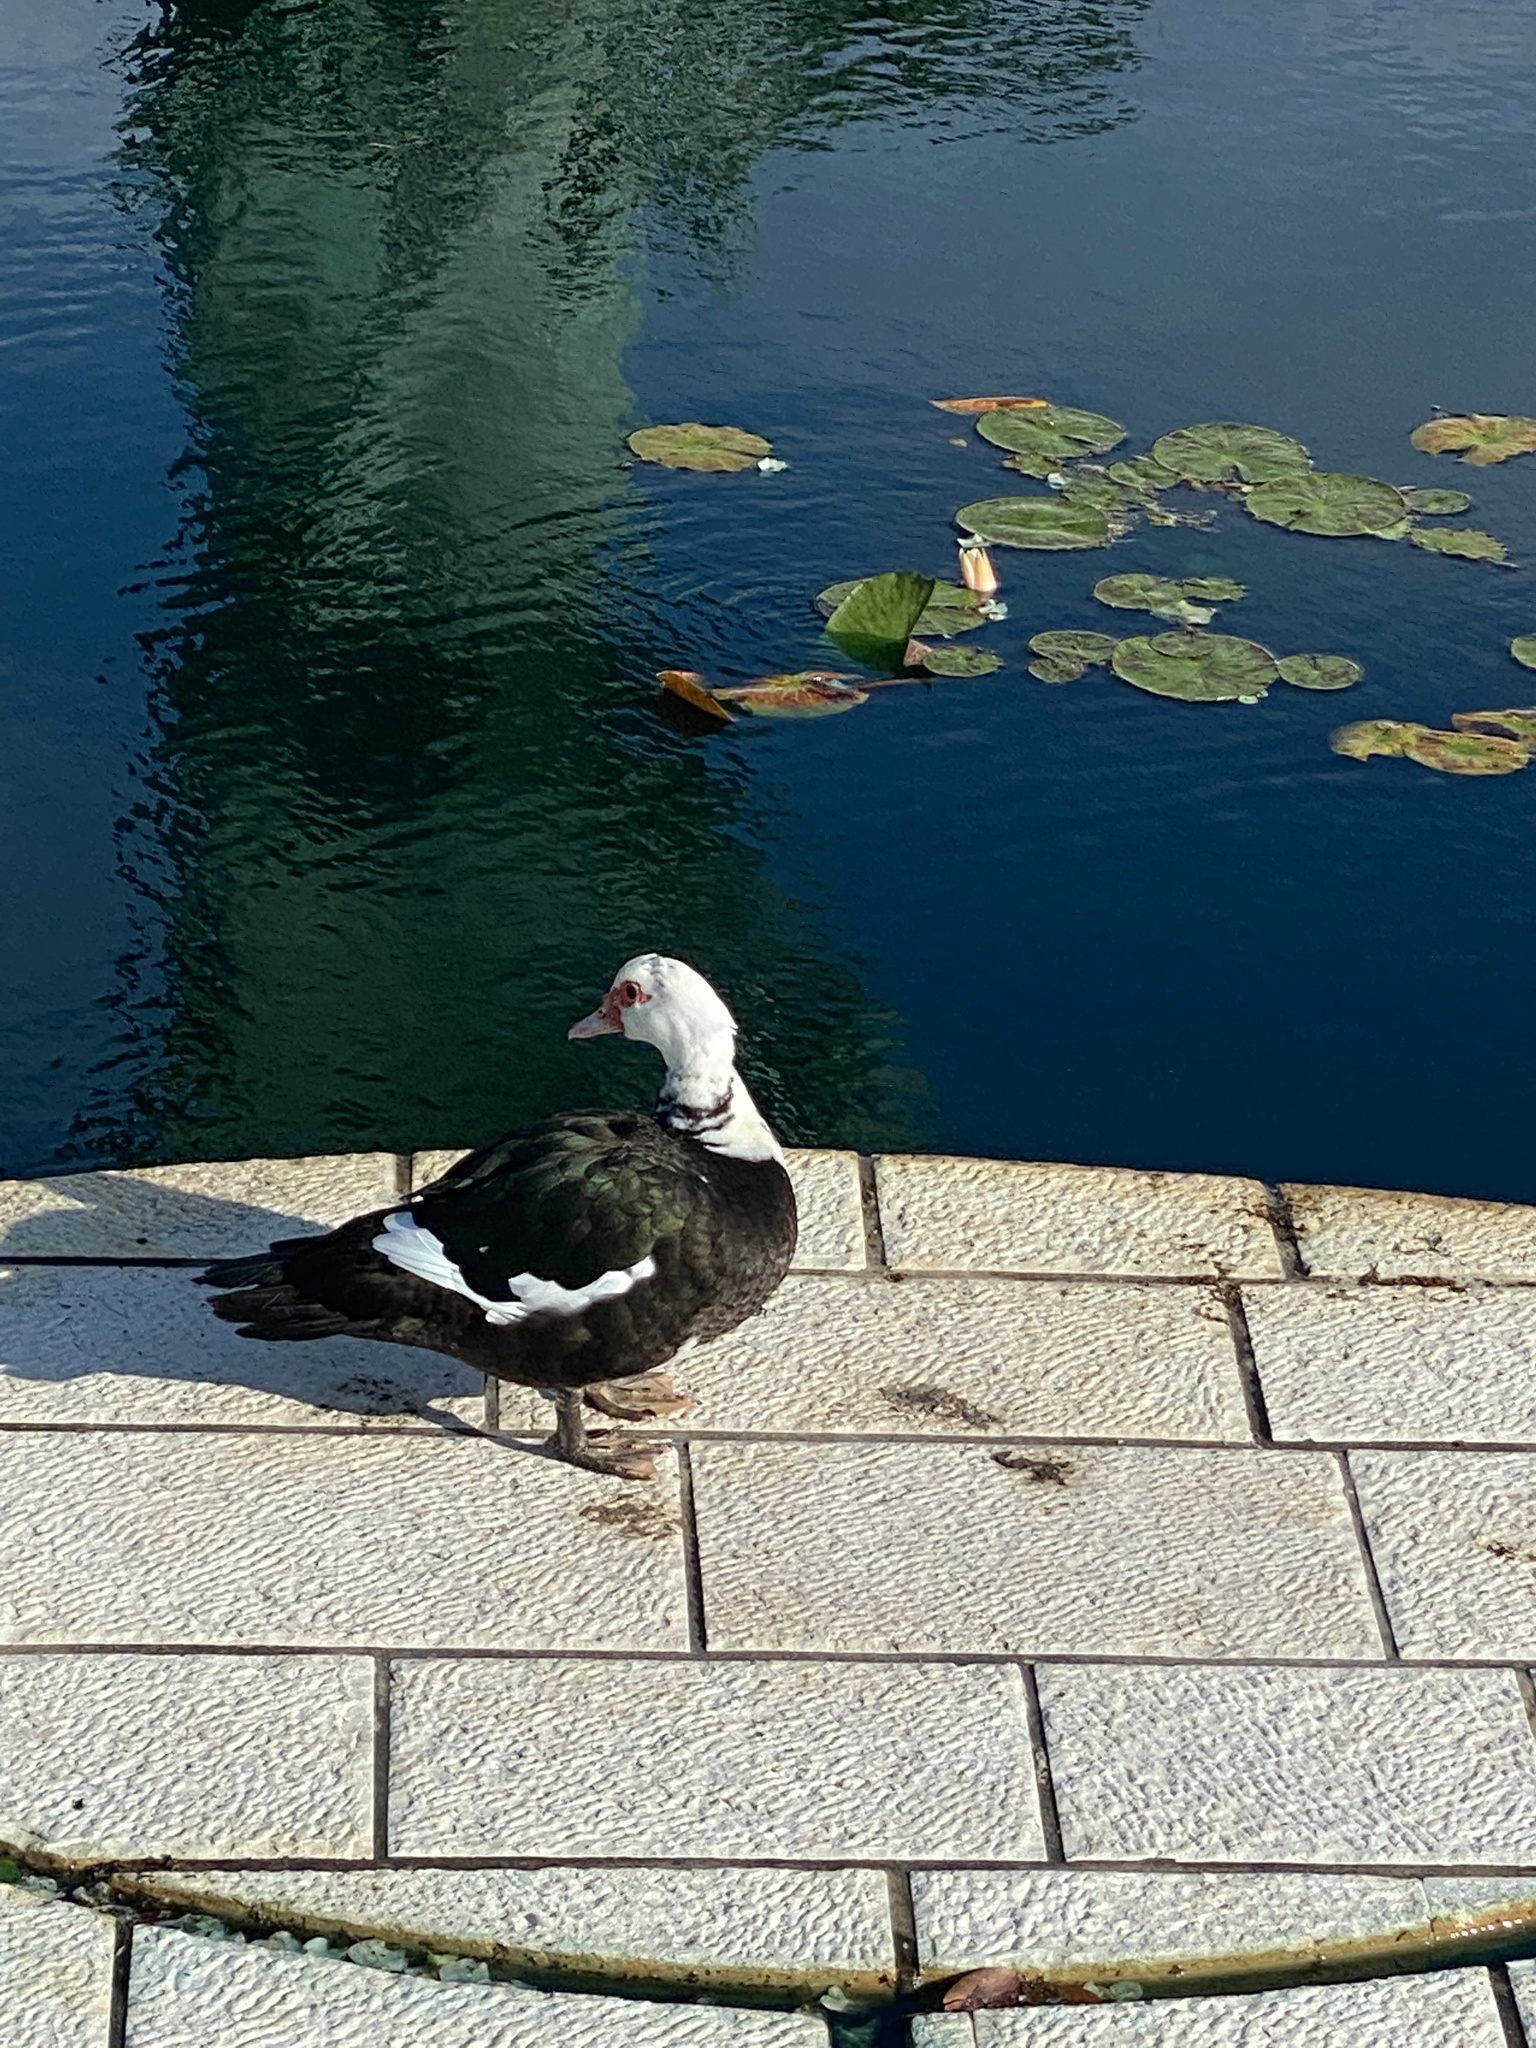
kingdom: Animalia
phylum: Chordata
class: Aves
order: Anseriformes
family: Anatidae
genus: Cairina
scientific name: Cairina moschata
